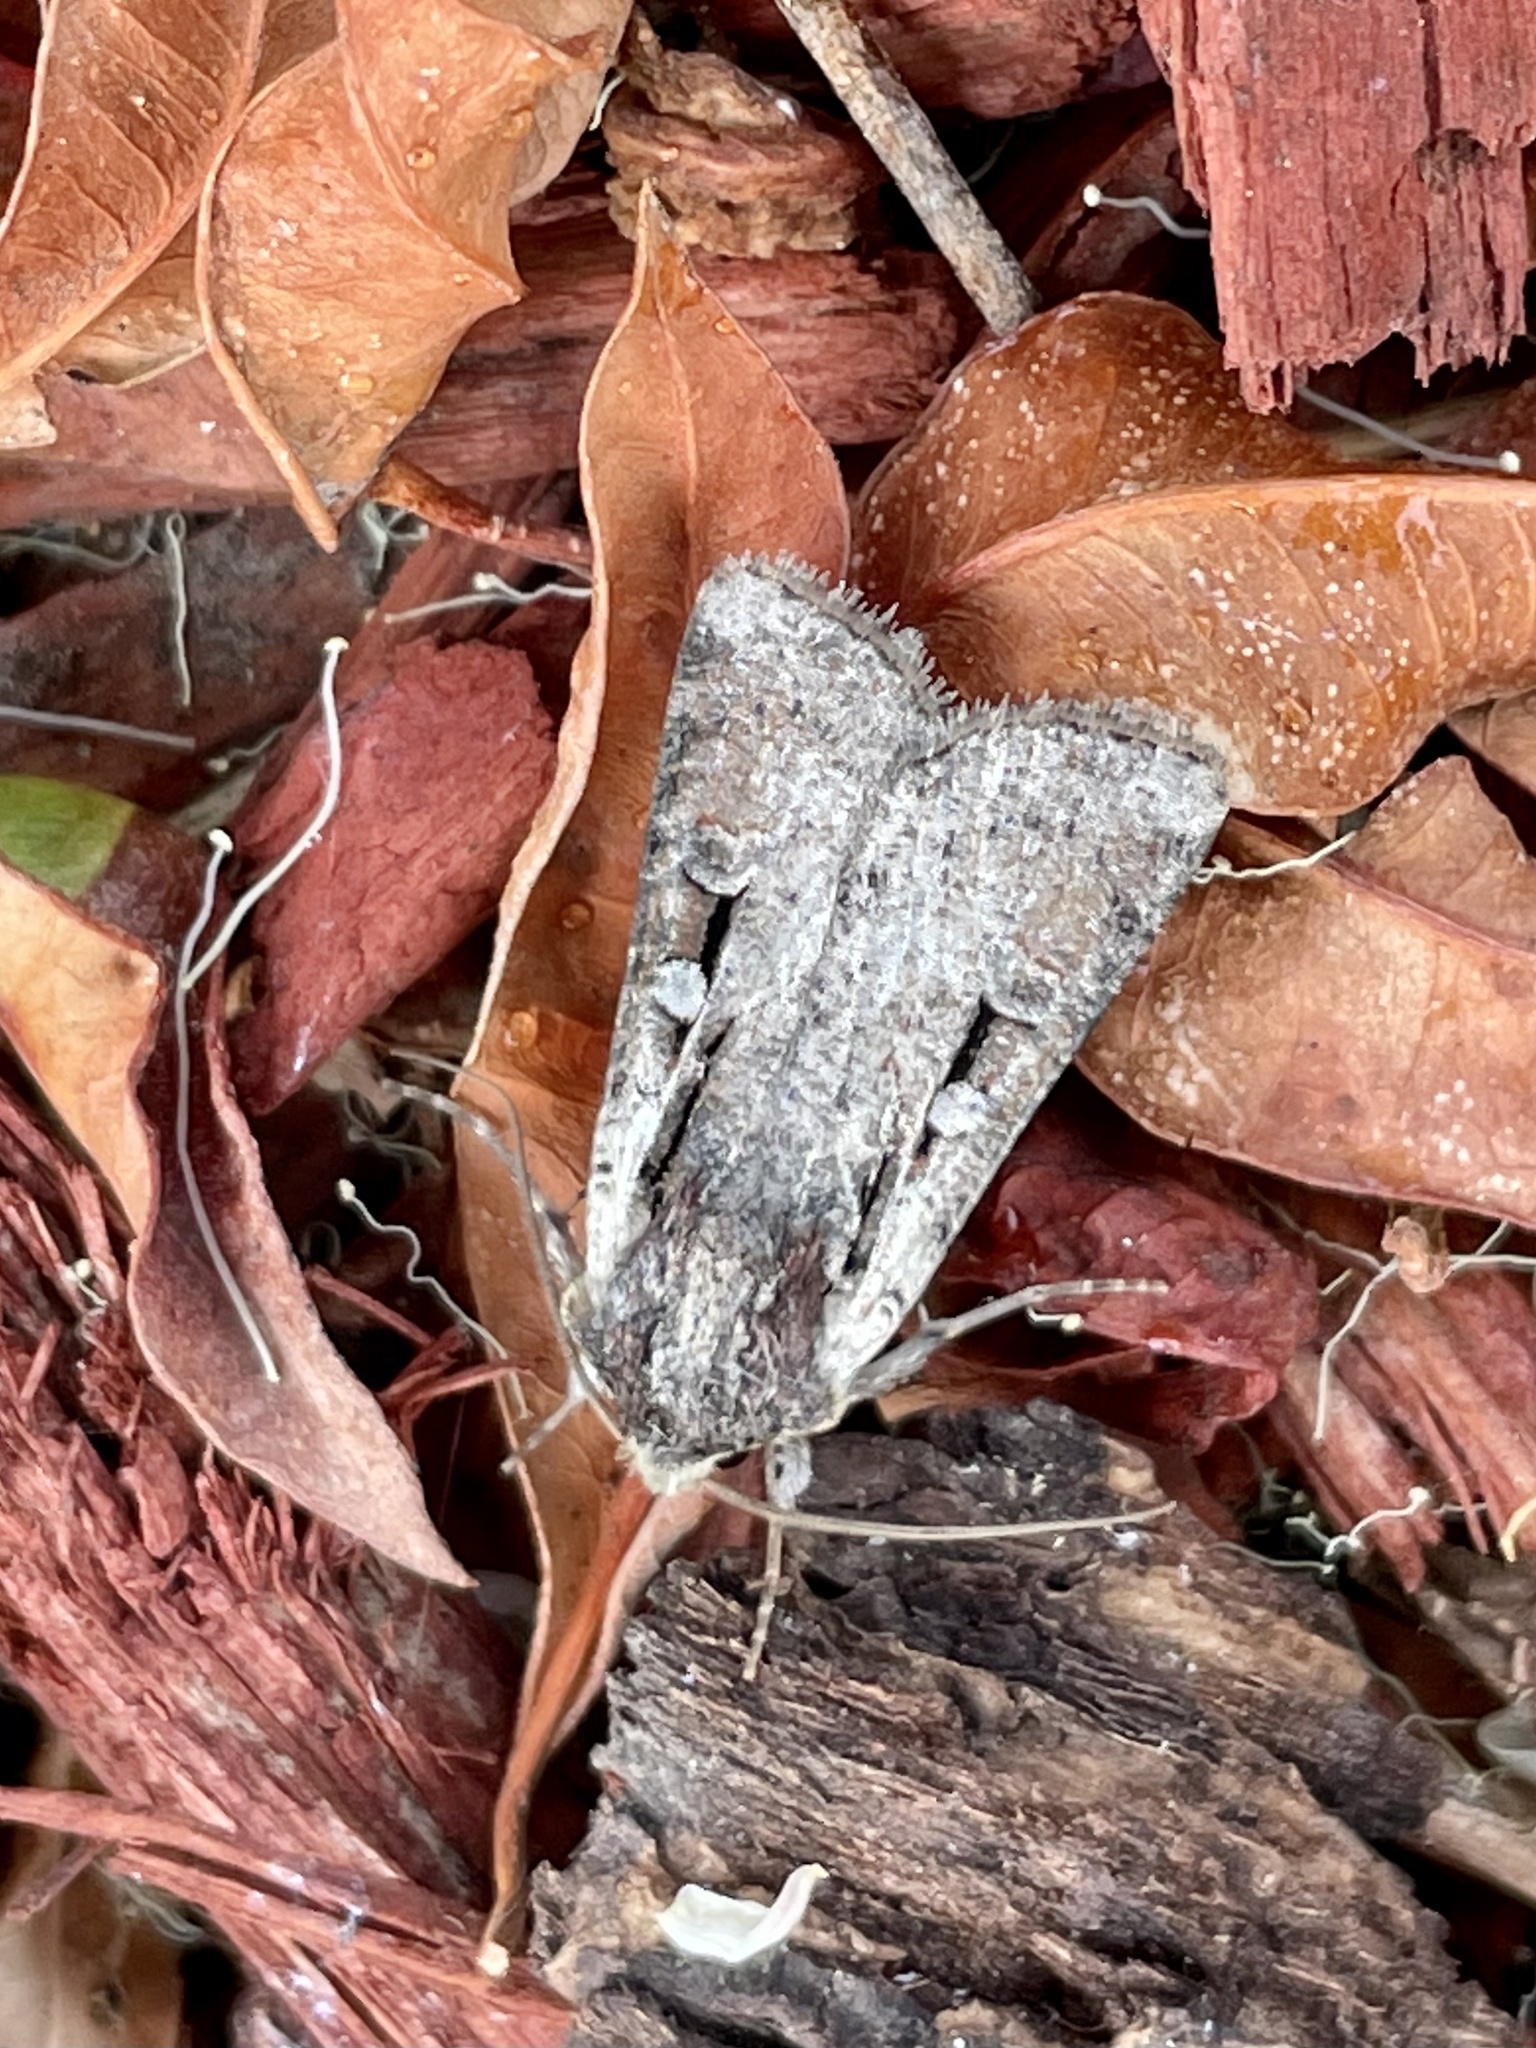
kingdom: Animalia
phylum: Arthropoda
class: Insecta
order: Lepidoptera
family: Noctuidae
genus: Hemieuxoa
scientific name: Hemieuxoa rudens
